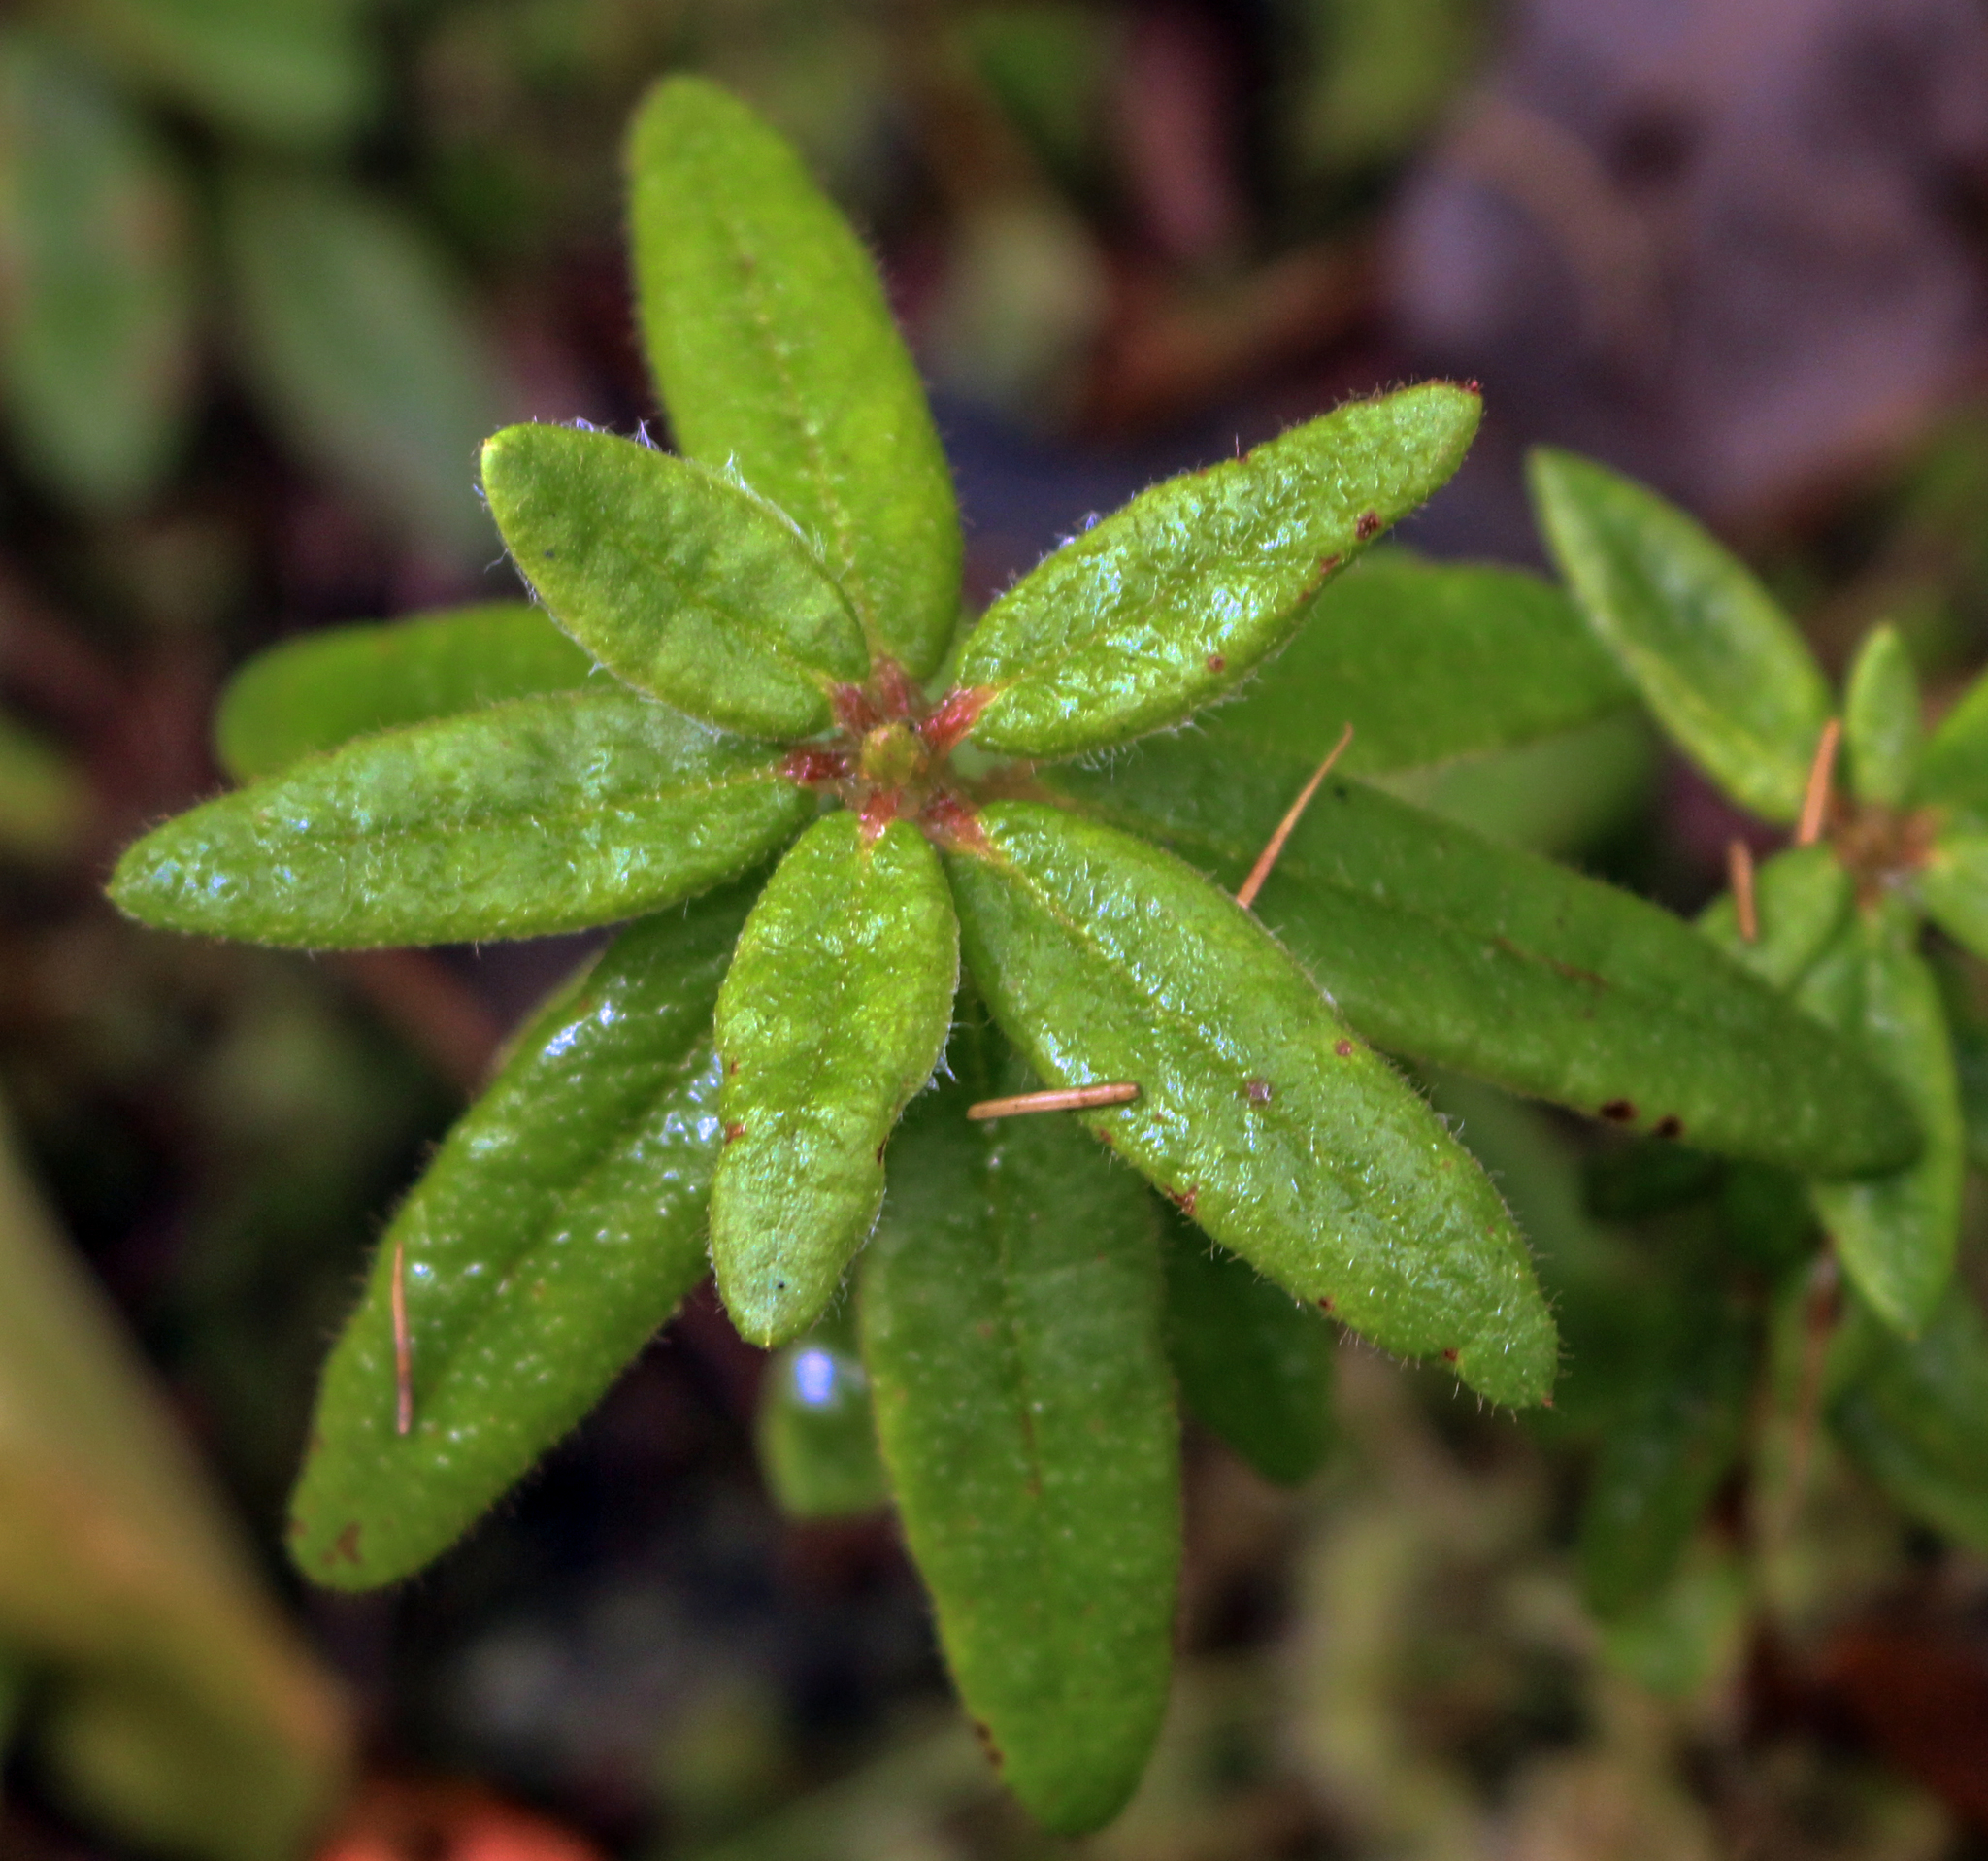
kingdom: Plantae
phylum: Tracheophyta
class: Magnoliopsida
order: Ericales
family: Ericaceae
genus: Rhododendron
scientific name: Rhododendron groenlandicum
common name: Bog labrador tea
